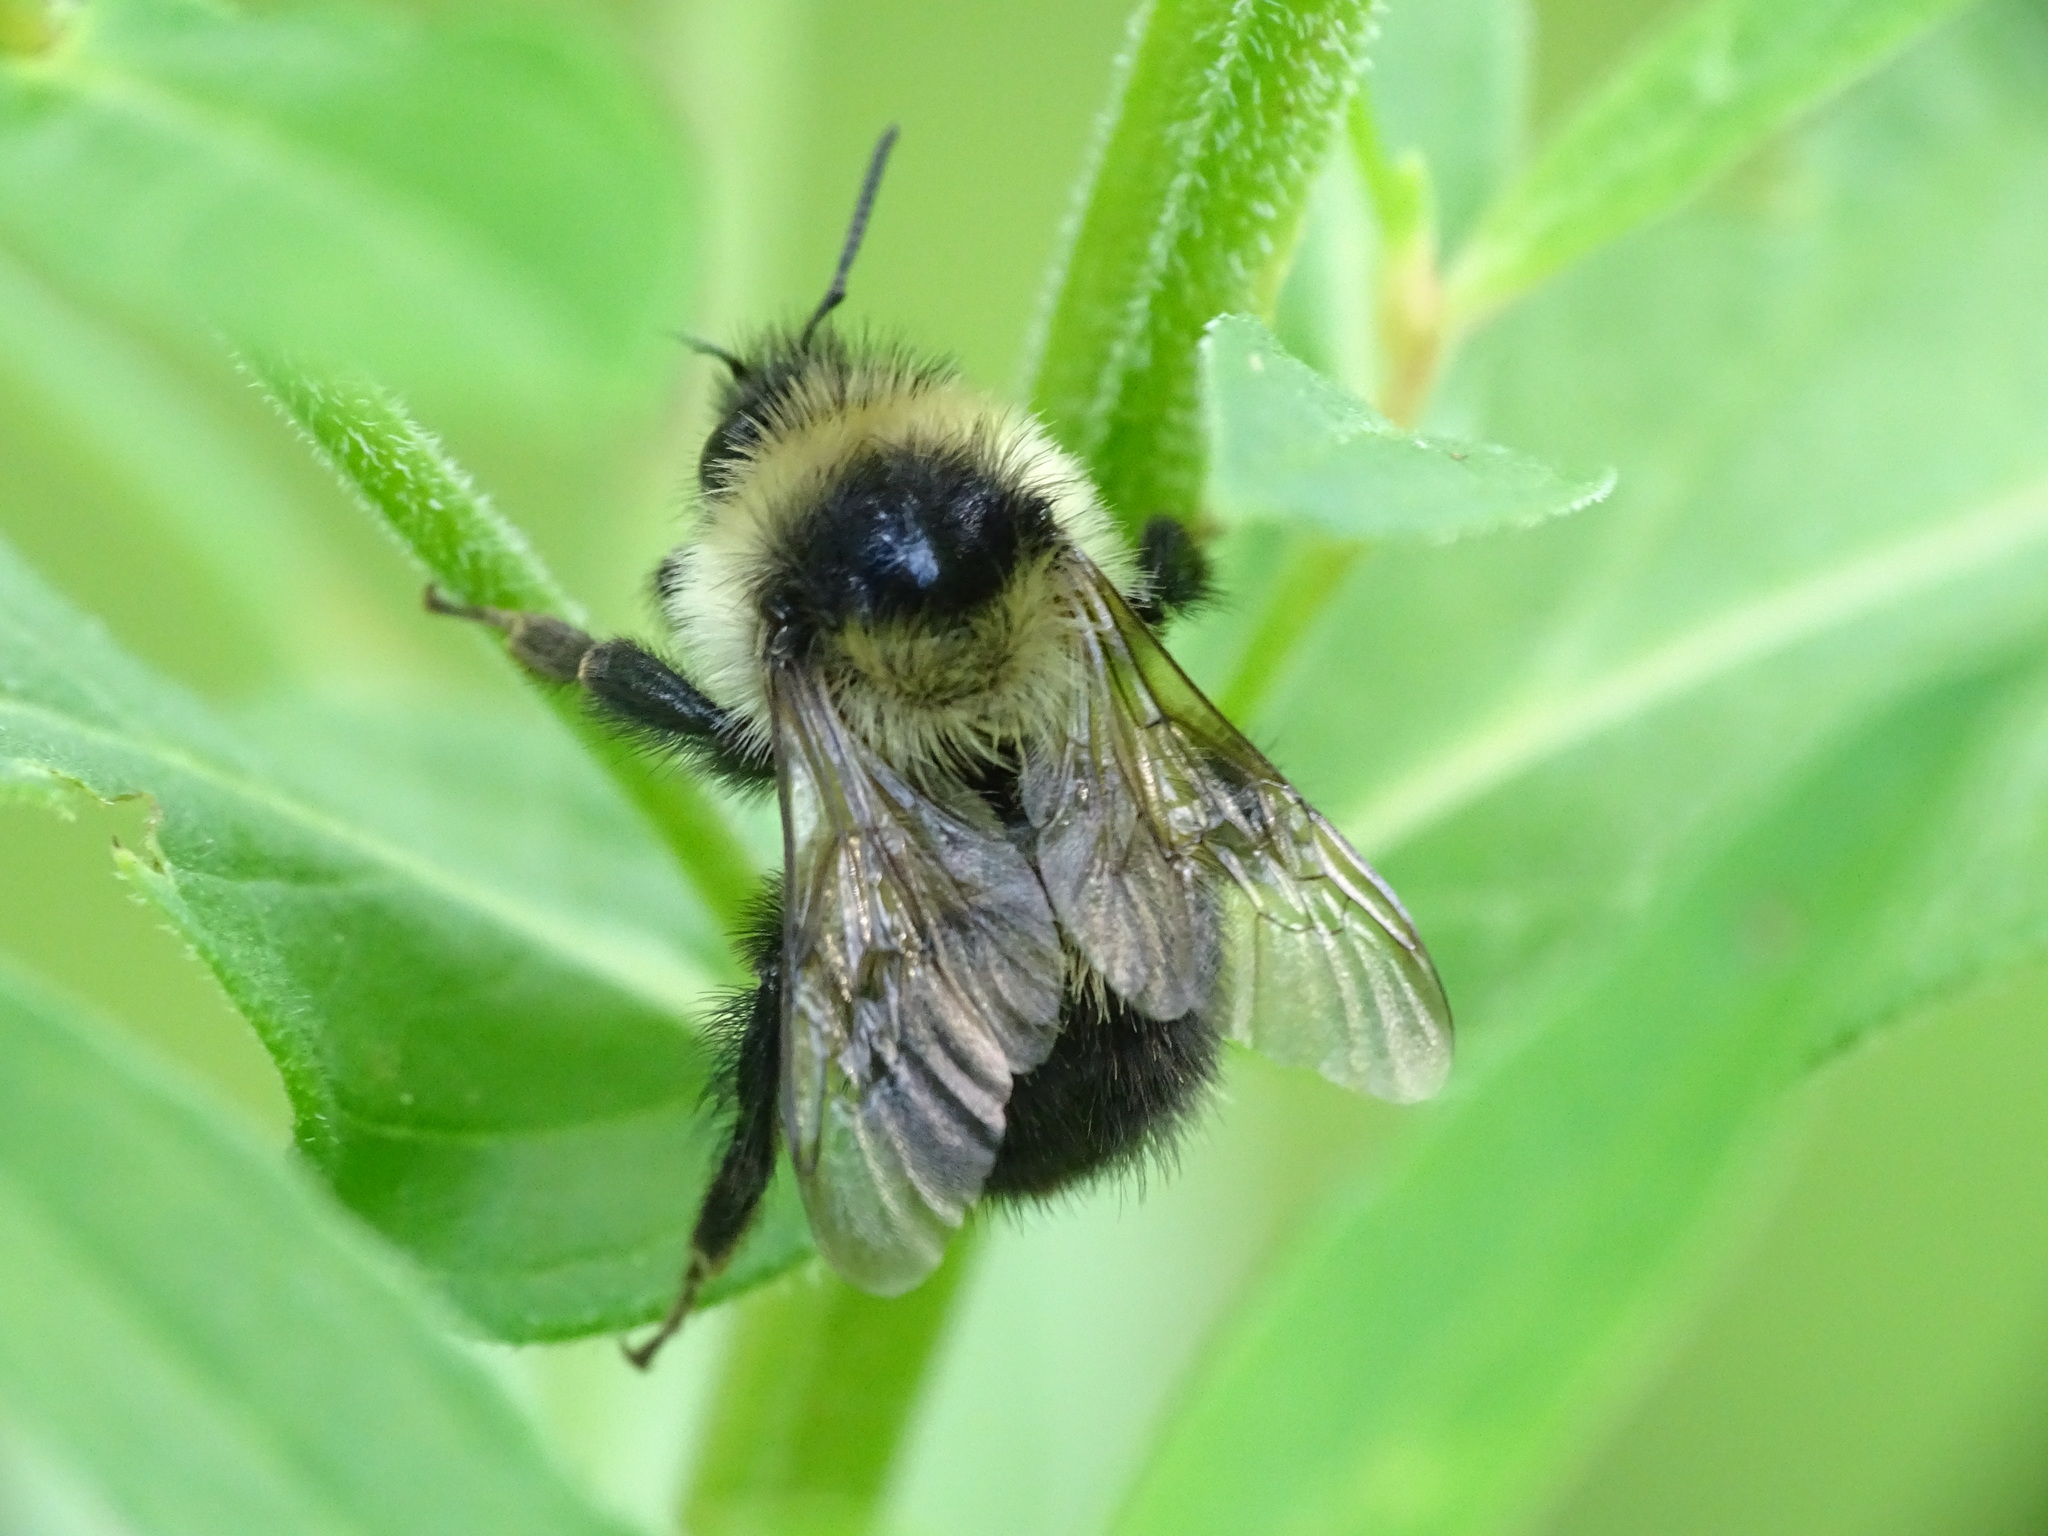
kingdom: Animalia
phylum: Arthropoda
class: Insecta
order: Hymenoptera
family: Apidae
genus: Bombus
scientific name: Bombus rufocinctus
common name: Red-belted bumble bee
